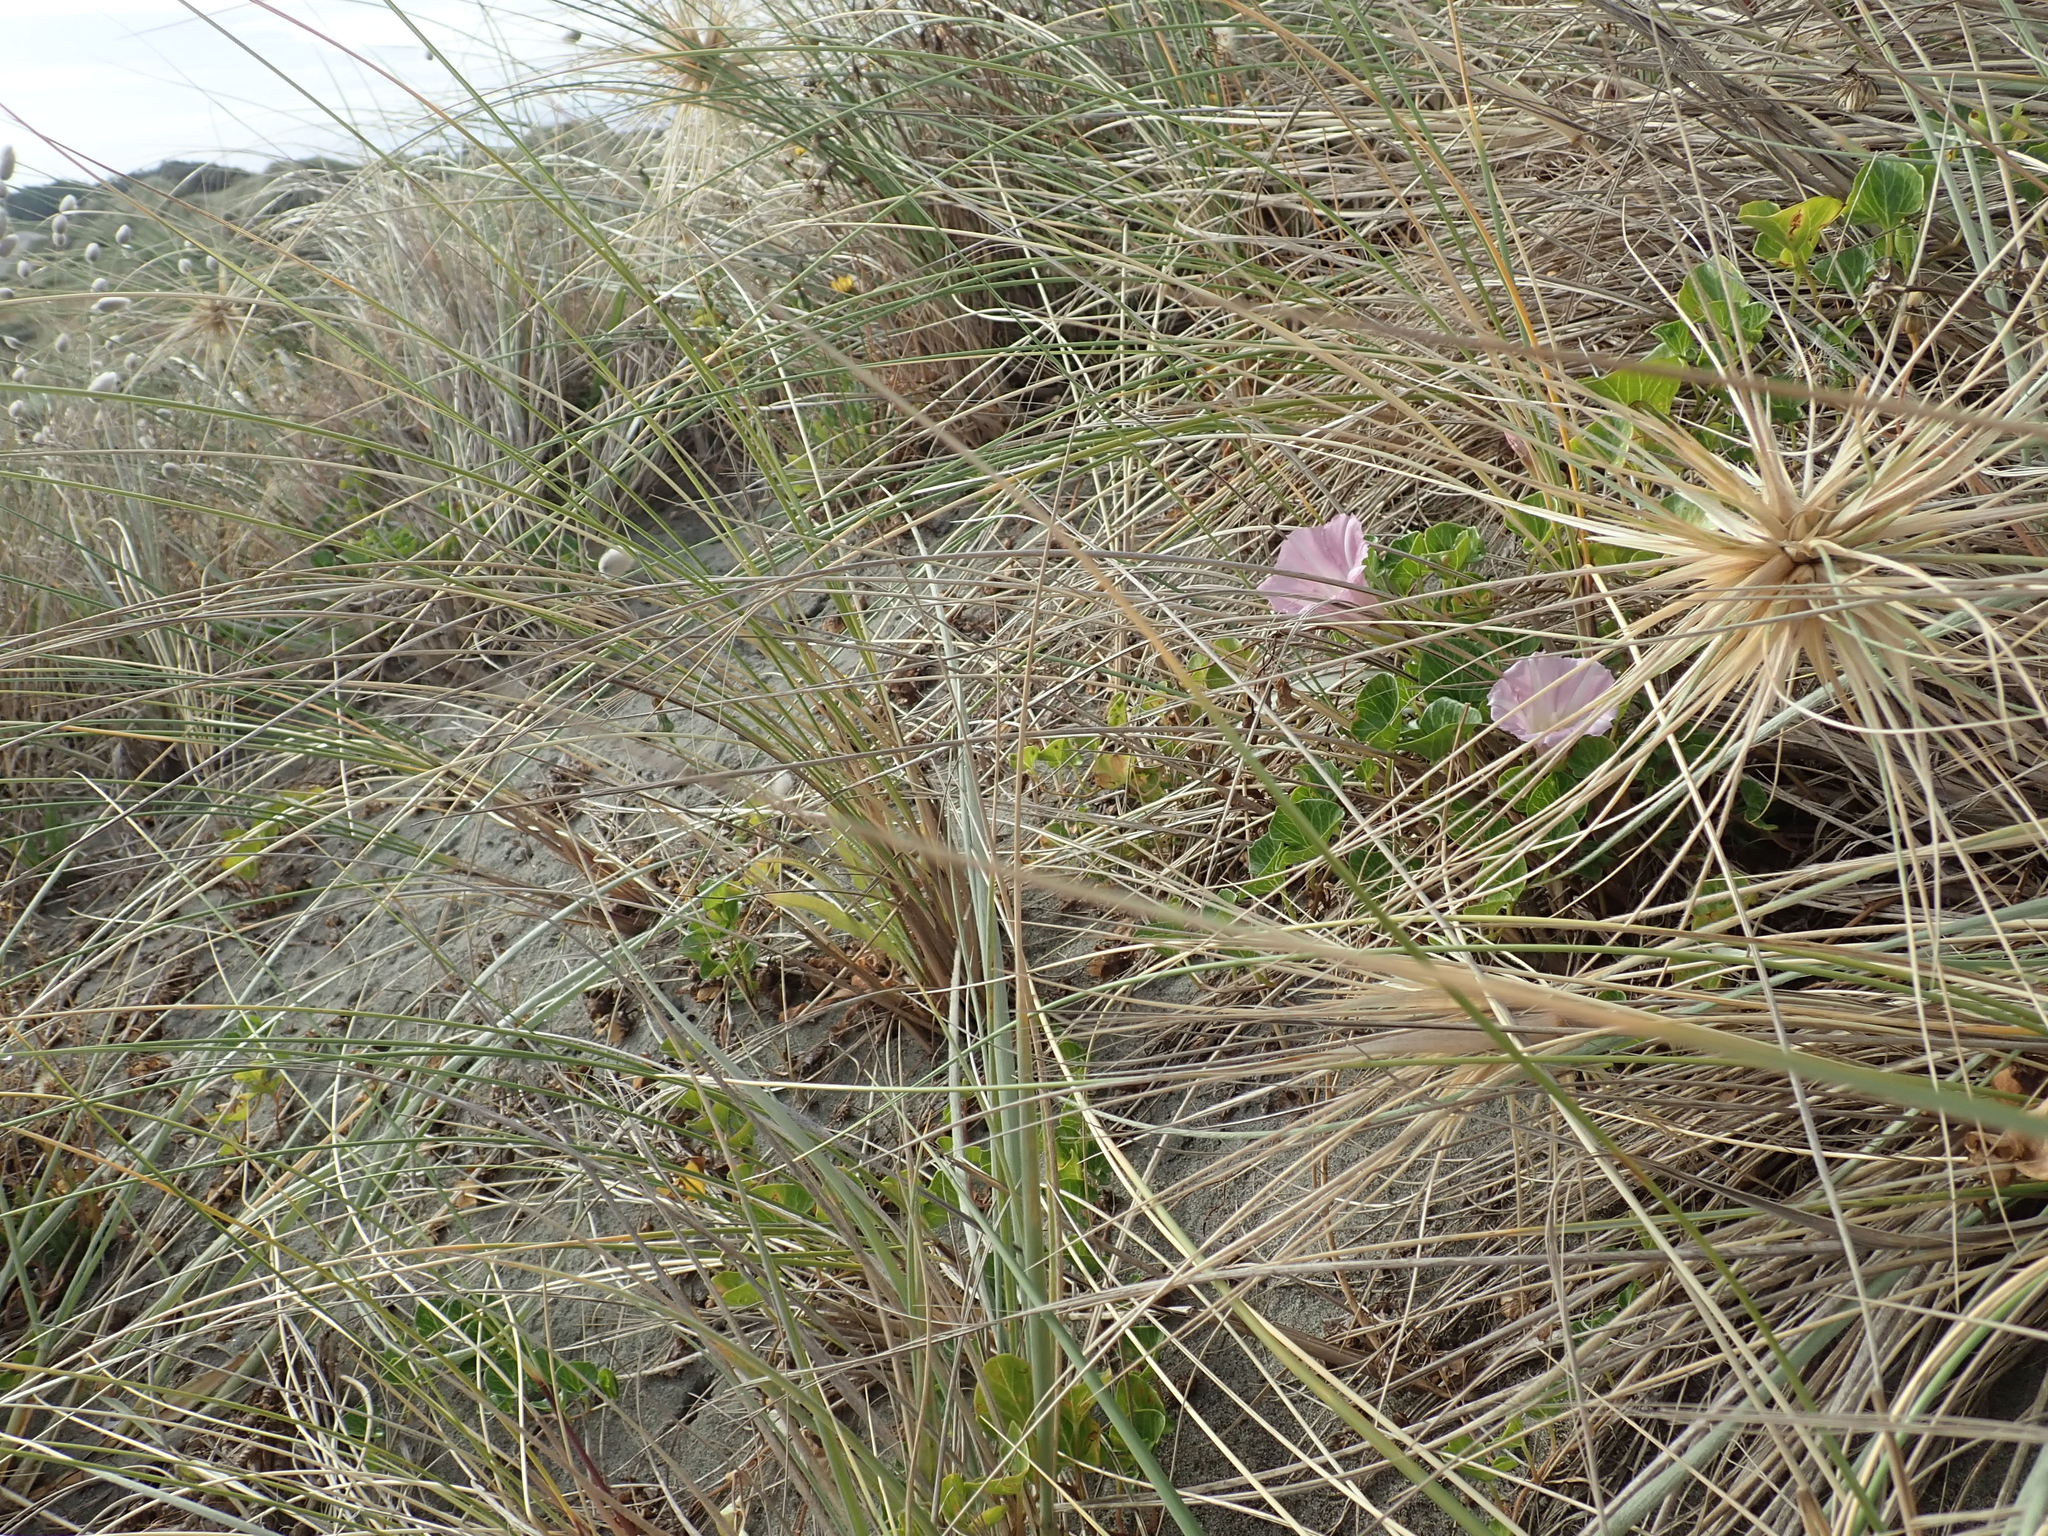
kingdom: Plantae
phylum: Tracheophyta
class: Magnoliopsida
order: Solanales
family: Convolvulaceae
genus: Calystegia
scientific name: Calystegia soldanella
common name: Sea bindweed
